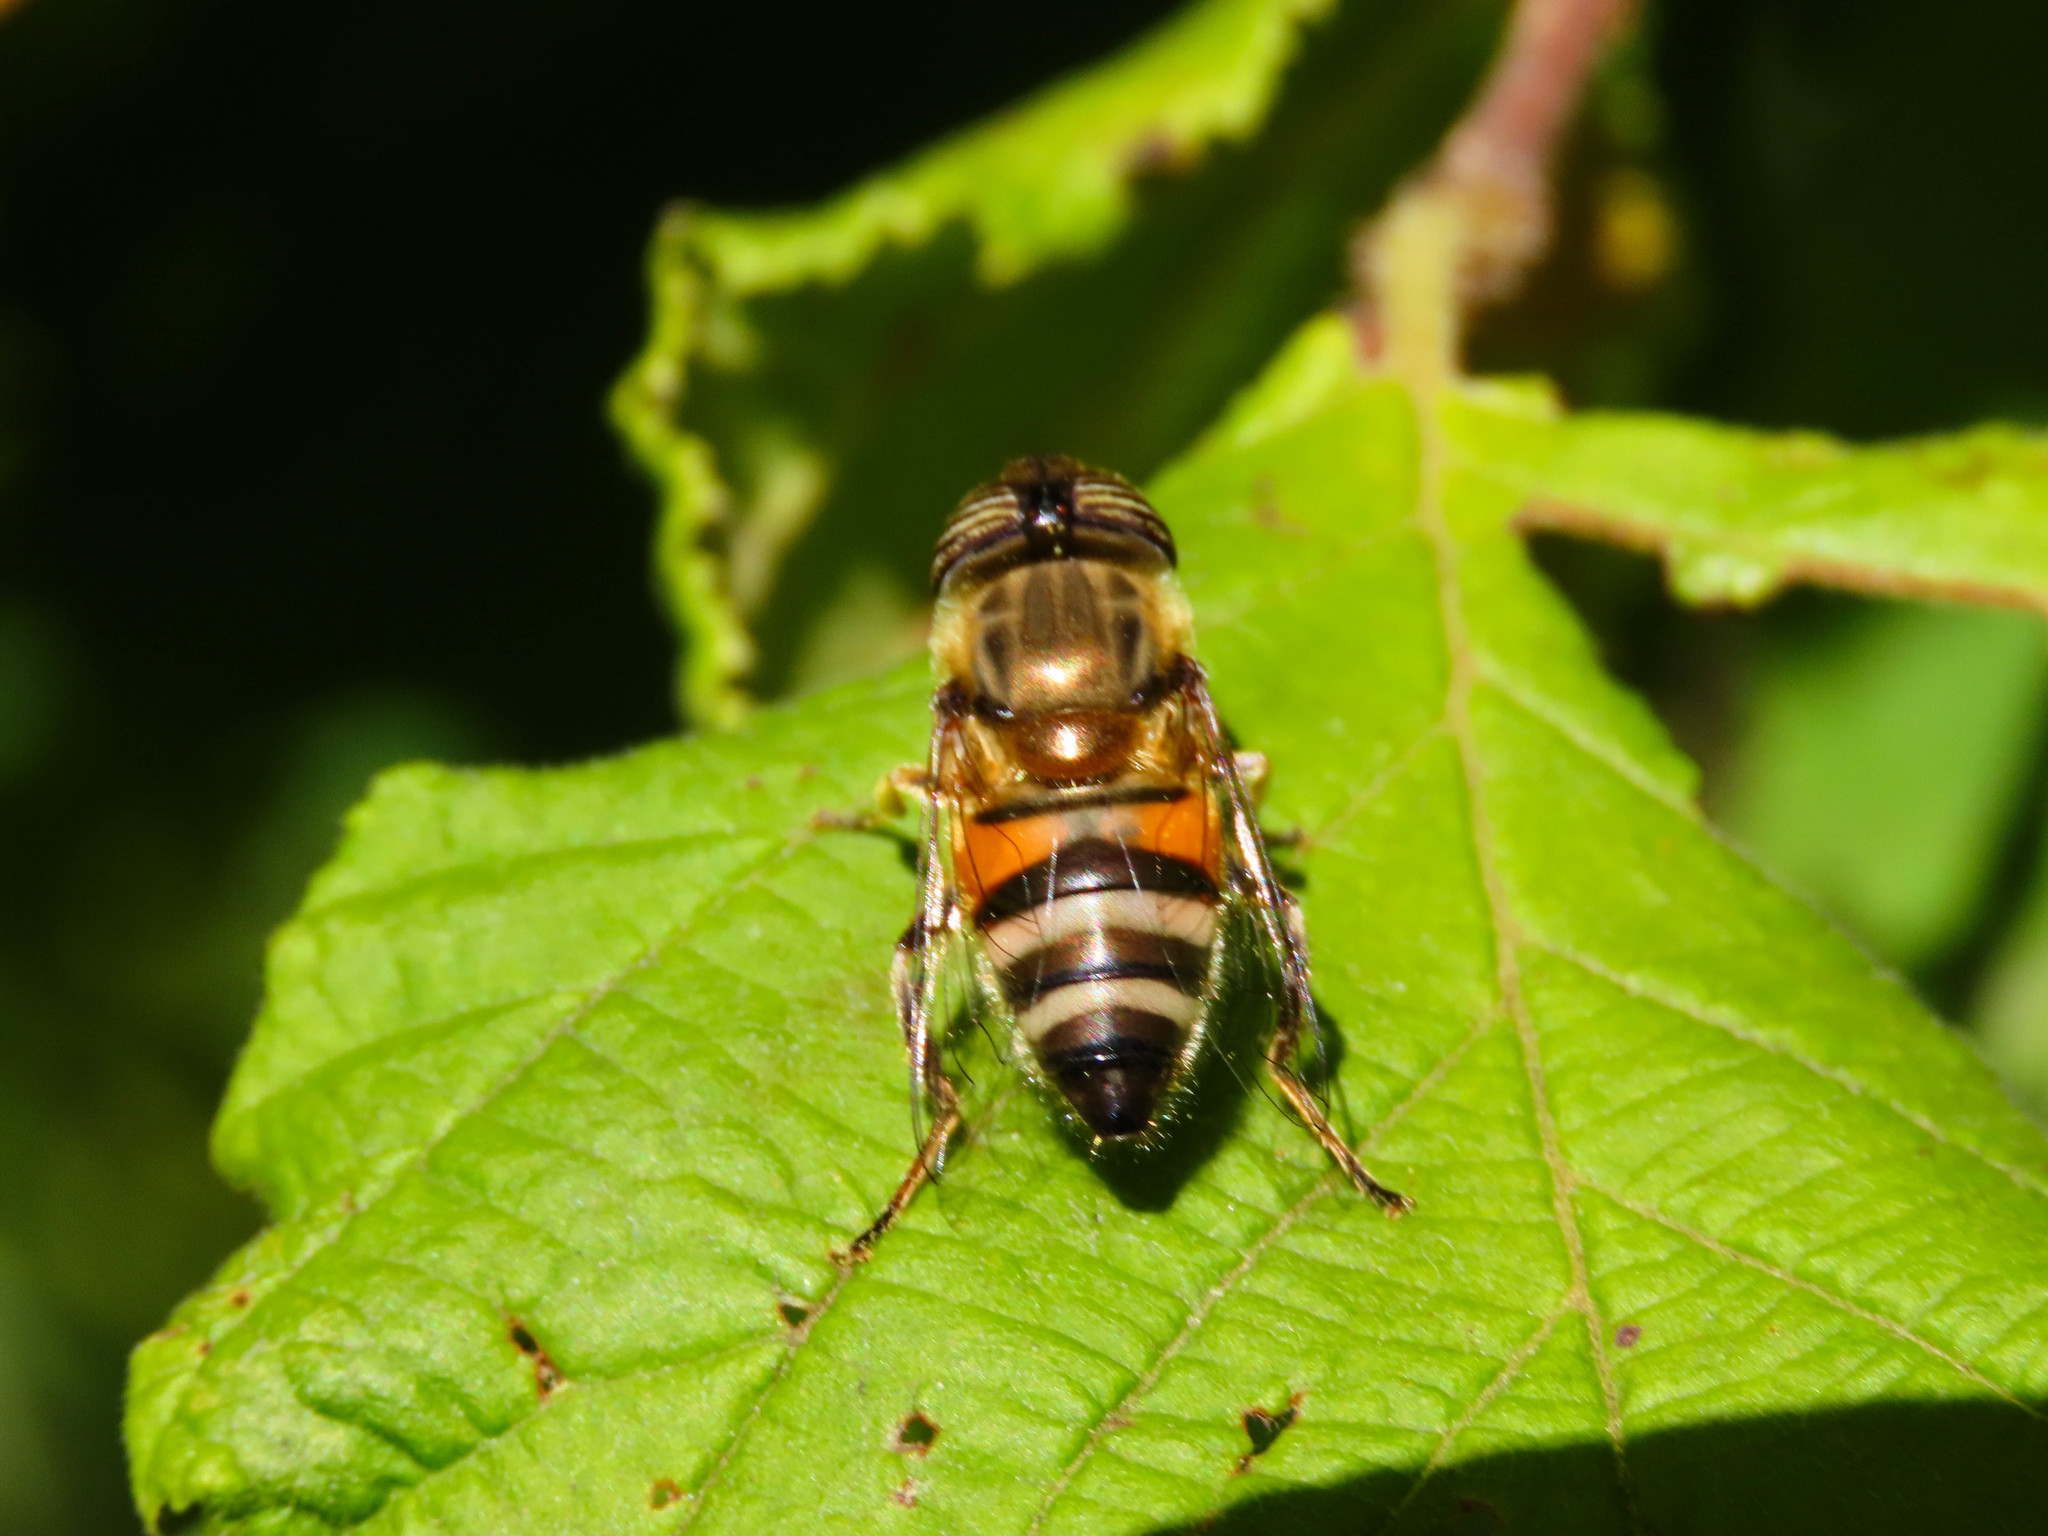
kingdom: Animalia
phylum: Arthropoda
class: Insecta
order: Diptera
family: Syrphidae
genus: Eristalinus
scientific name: Eristalinus taeniops
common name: Syrphid fly
